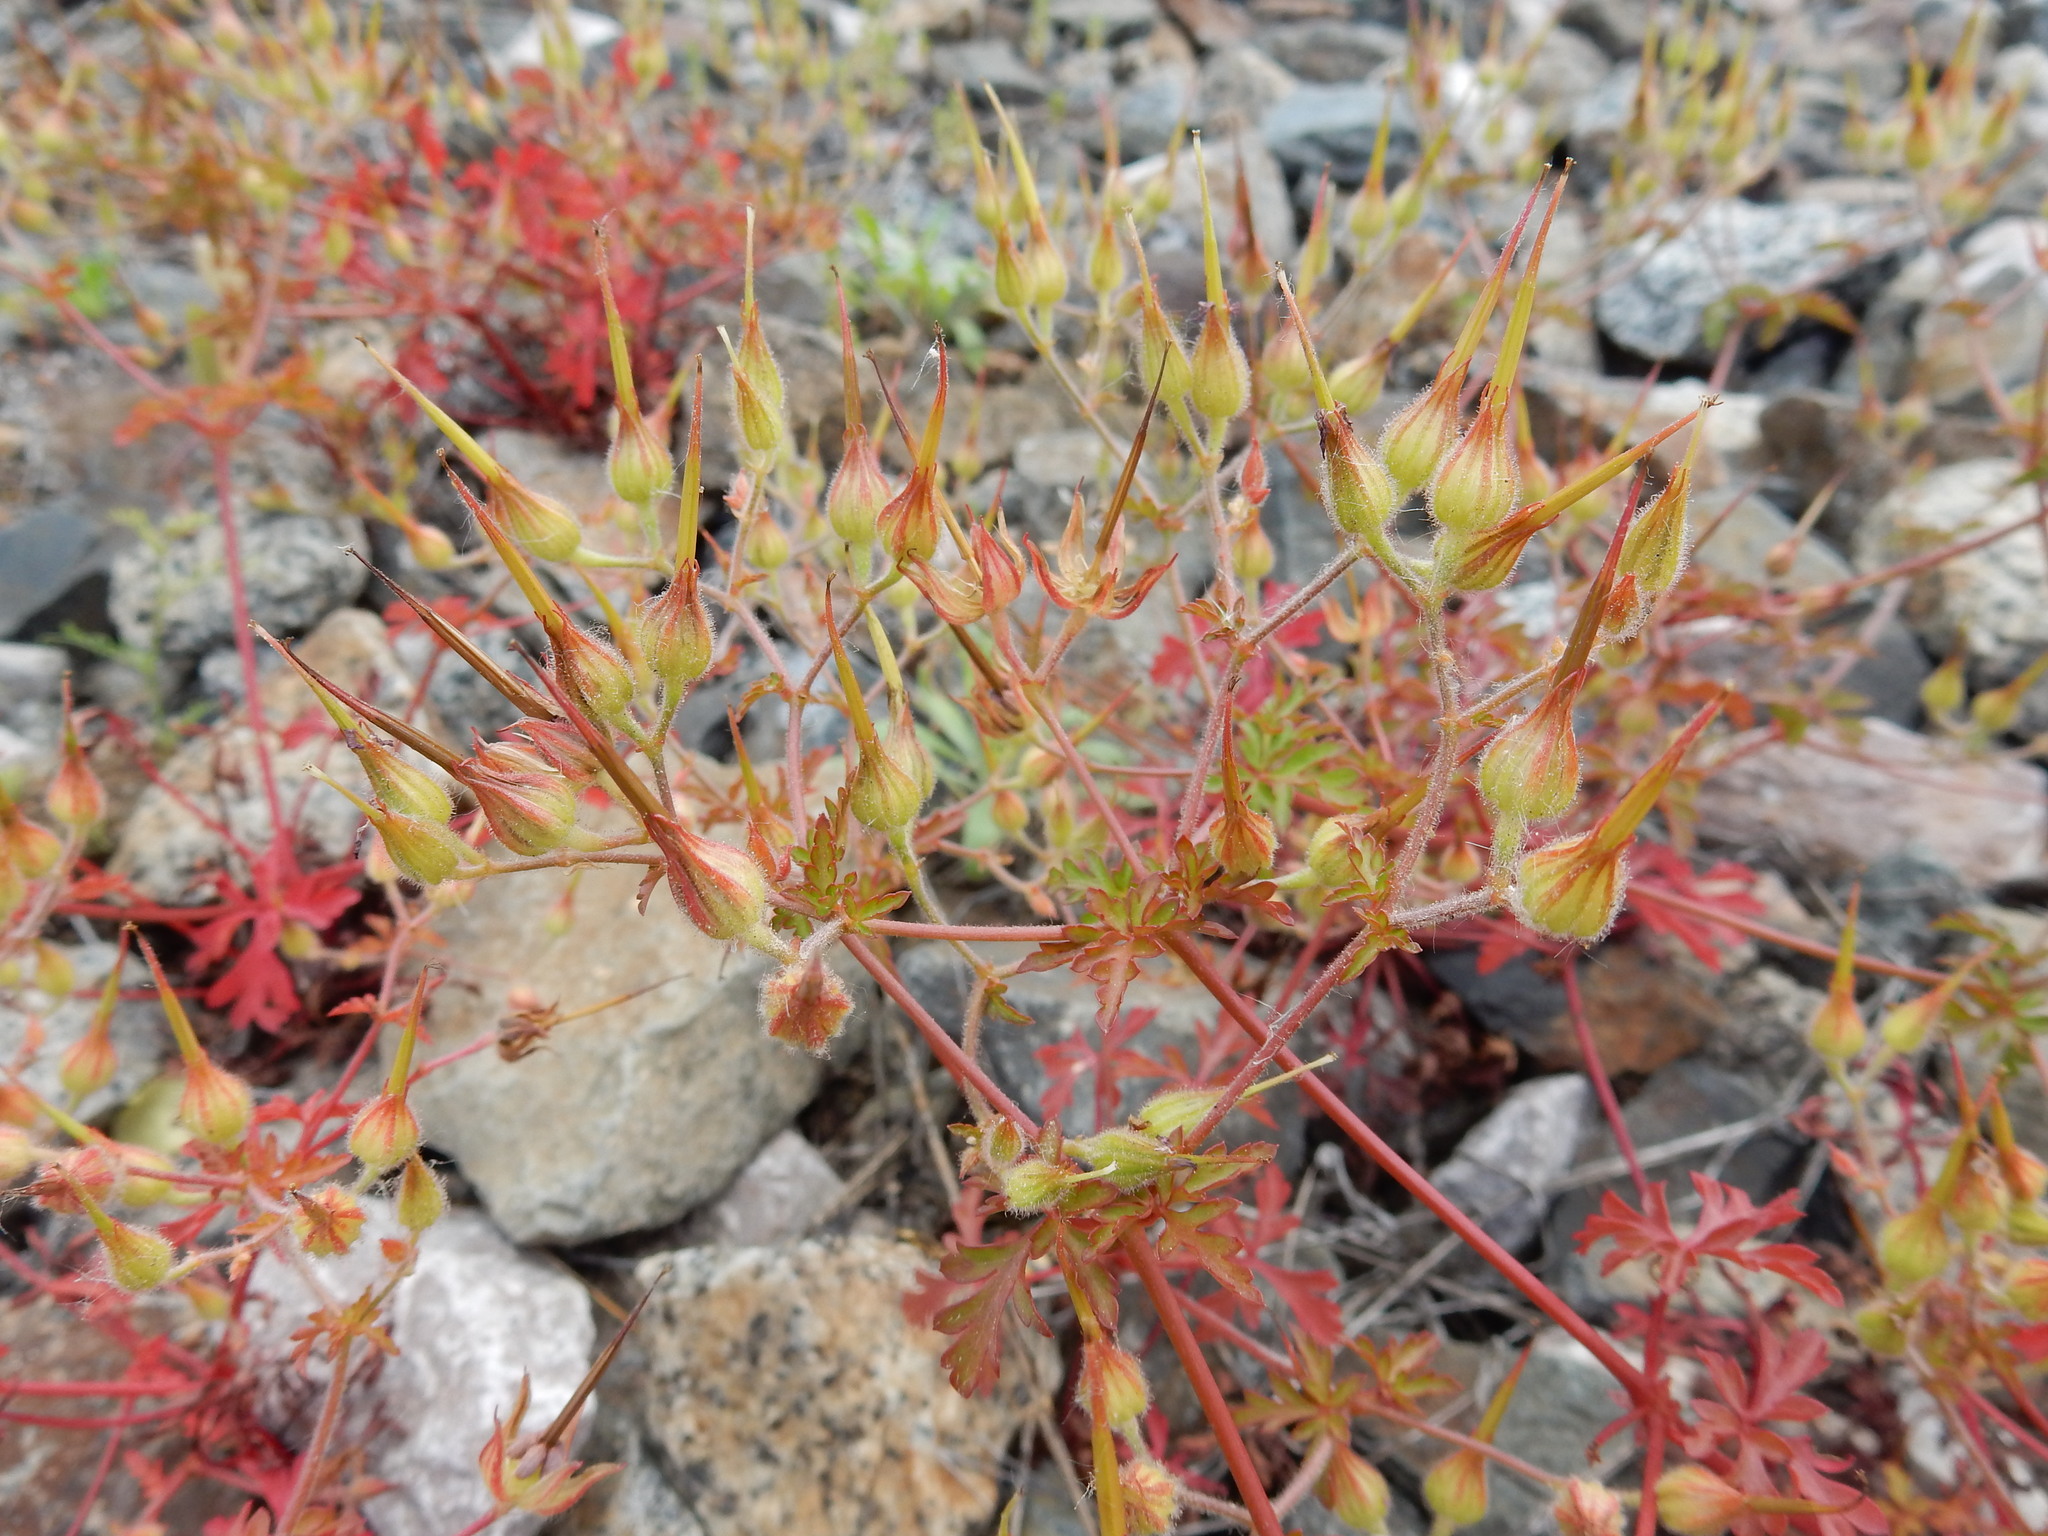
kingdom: Plantae
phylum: Tracheophyta
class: Magnoliopsida
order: Geraniales
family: Geraniaceae
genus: Geranium
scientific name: Geranium purpureum
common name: Little-robin
